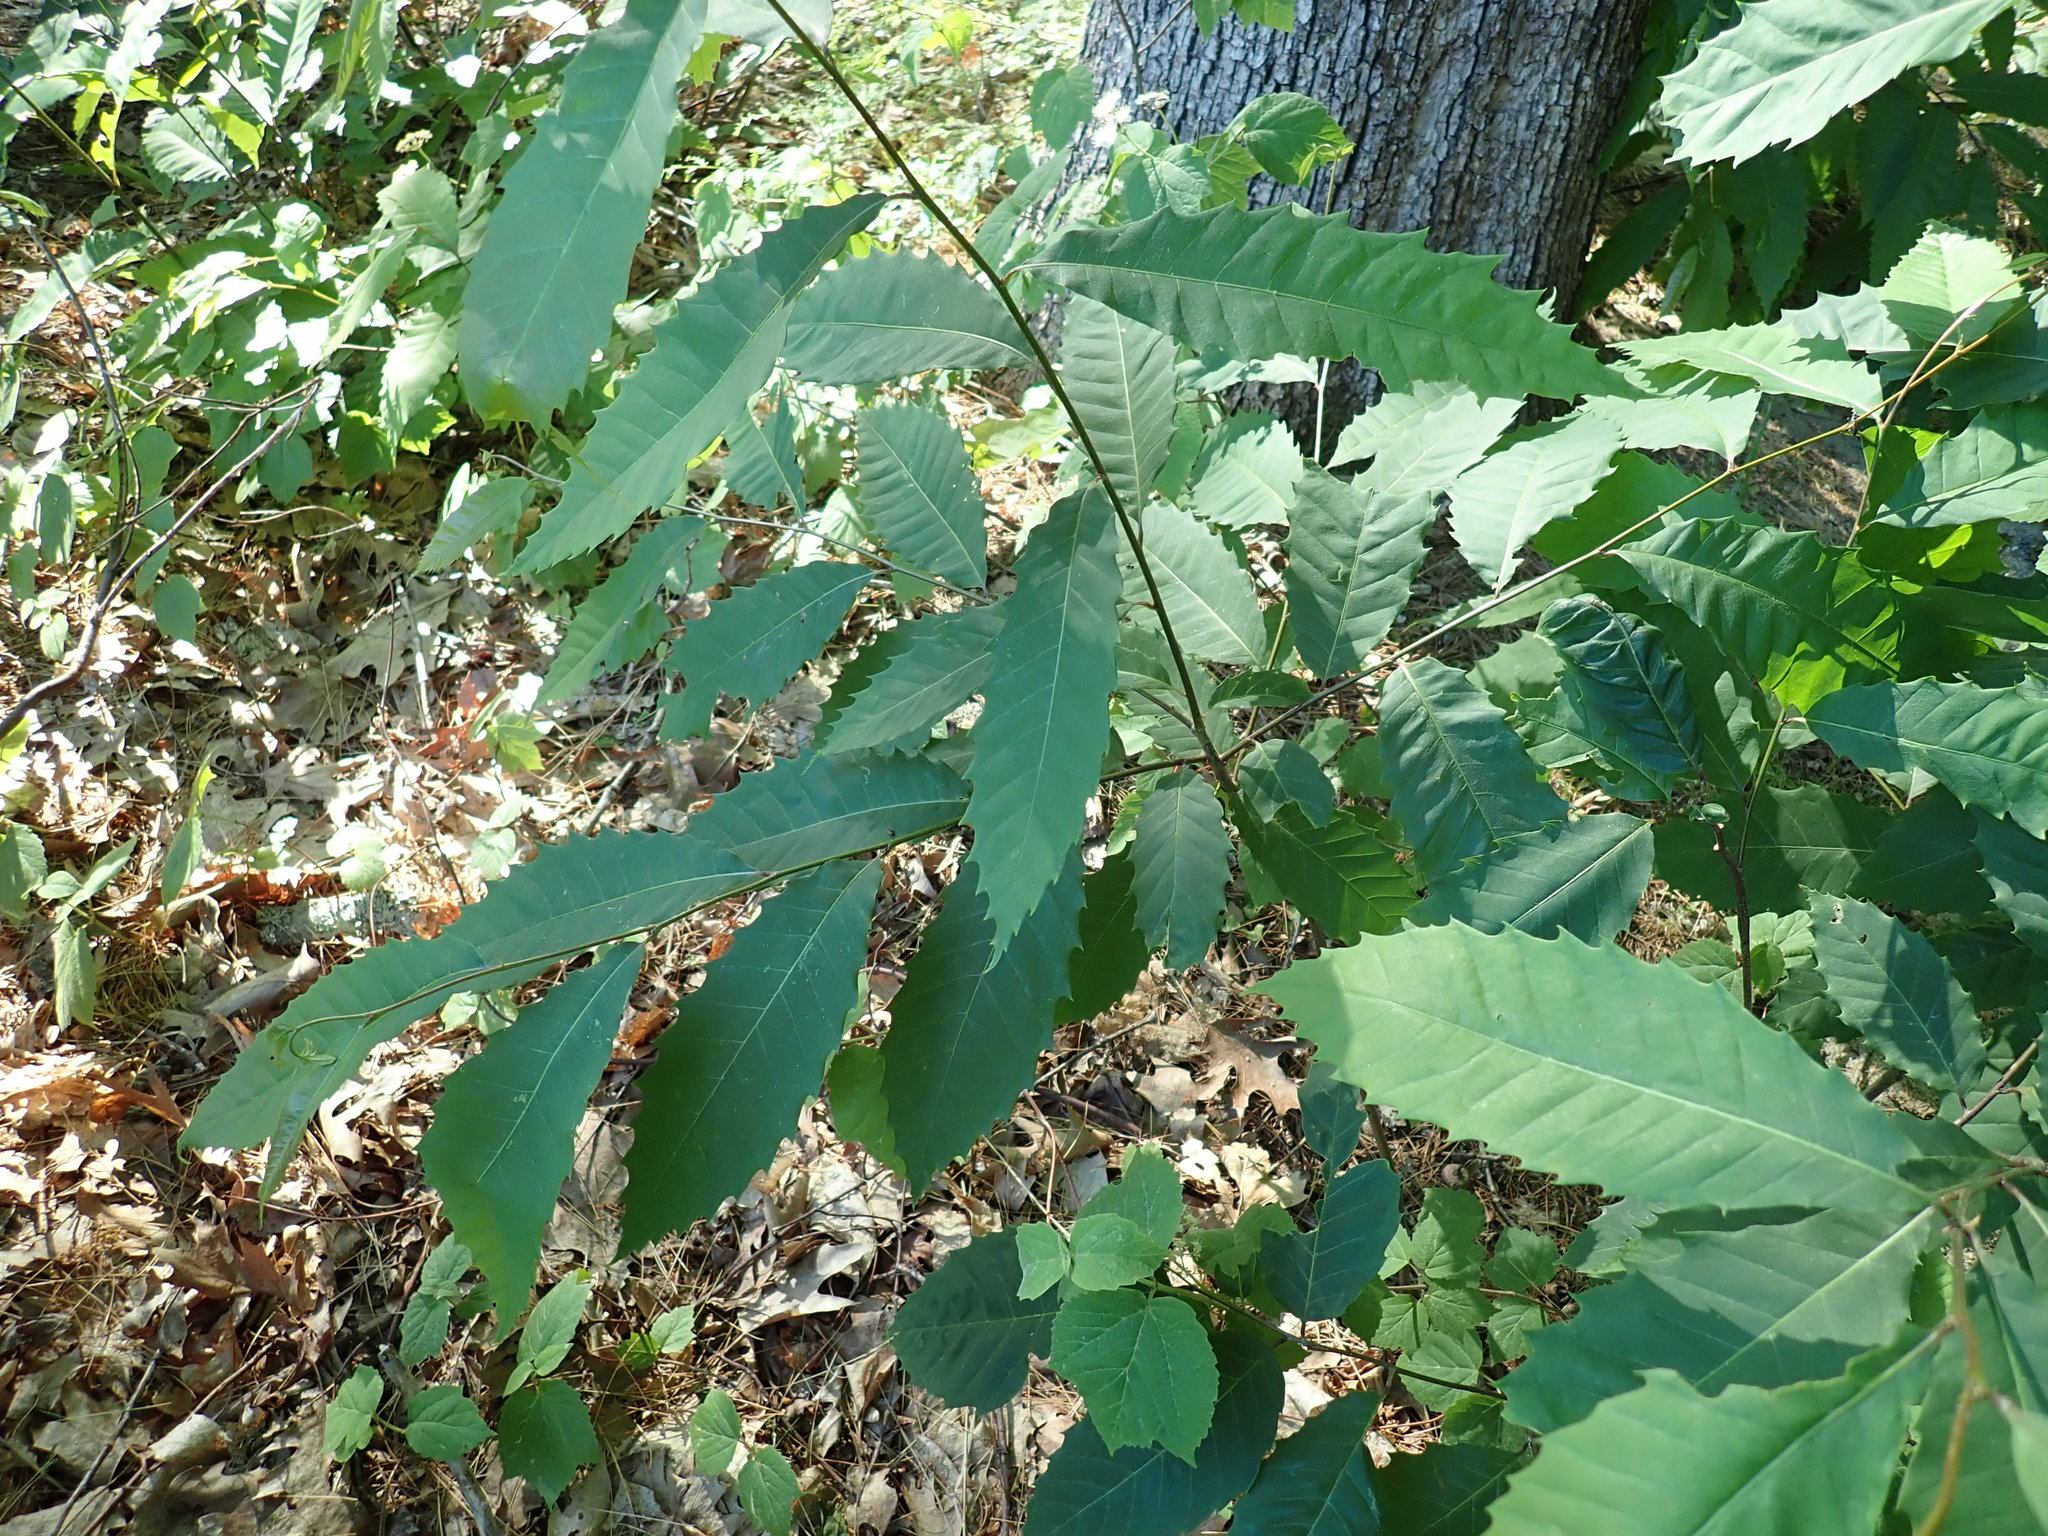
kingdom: Plantae
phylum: Tracheophyta
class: Magnoliopsida
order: Fagales
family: Fagaceae
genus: Castanea
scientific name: Castanea dentata
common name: American chestnut
